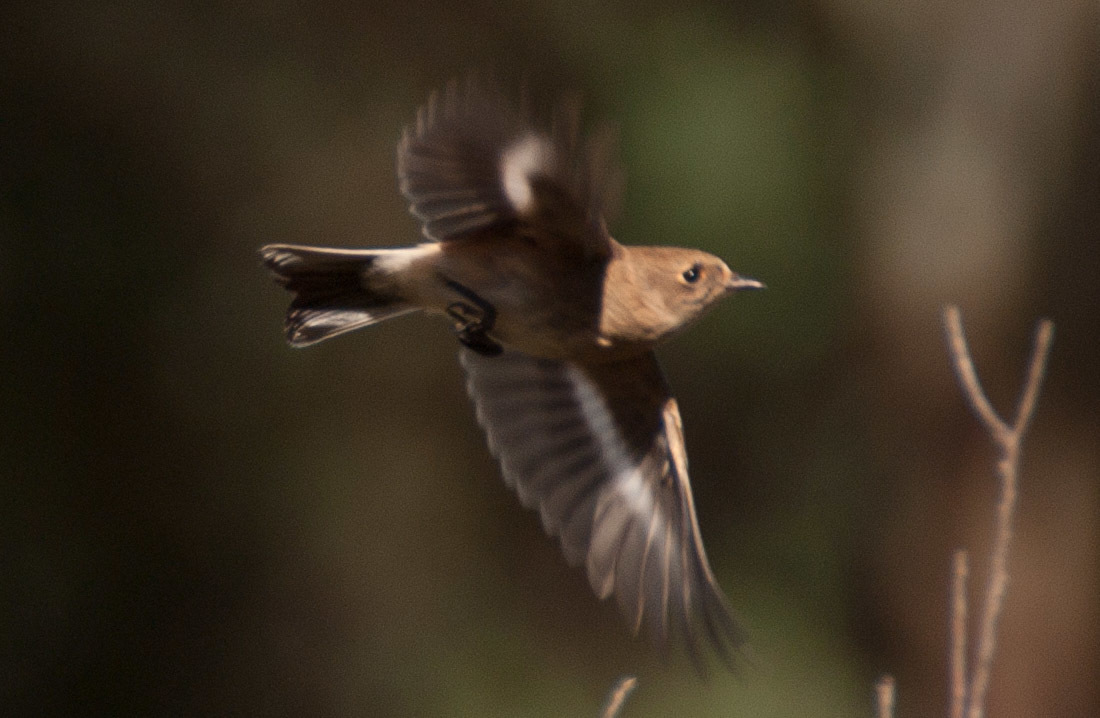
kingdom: Animalia
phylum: Chordata
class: Aves
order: Passeriformes
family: Petroicidae
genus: Petroica
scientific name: Petroica phoenicea
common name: Flame robin
